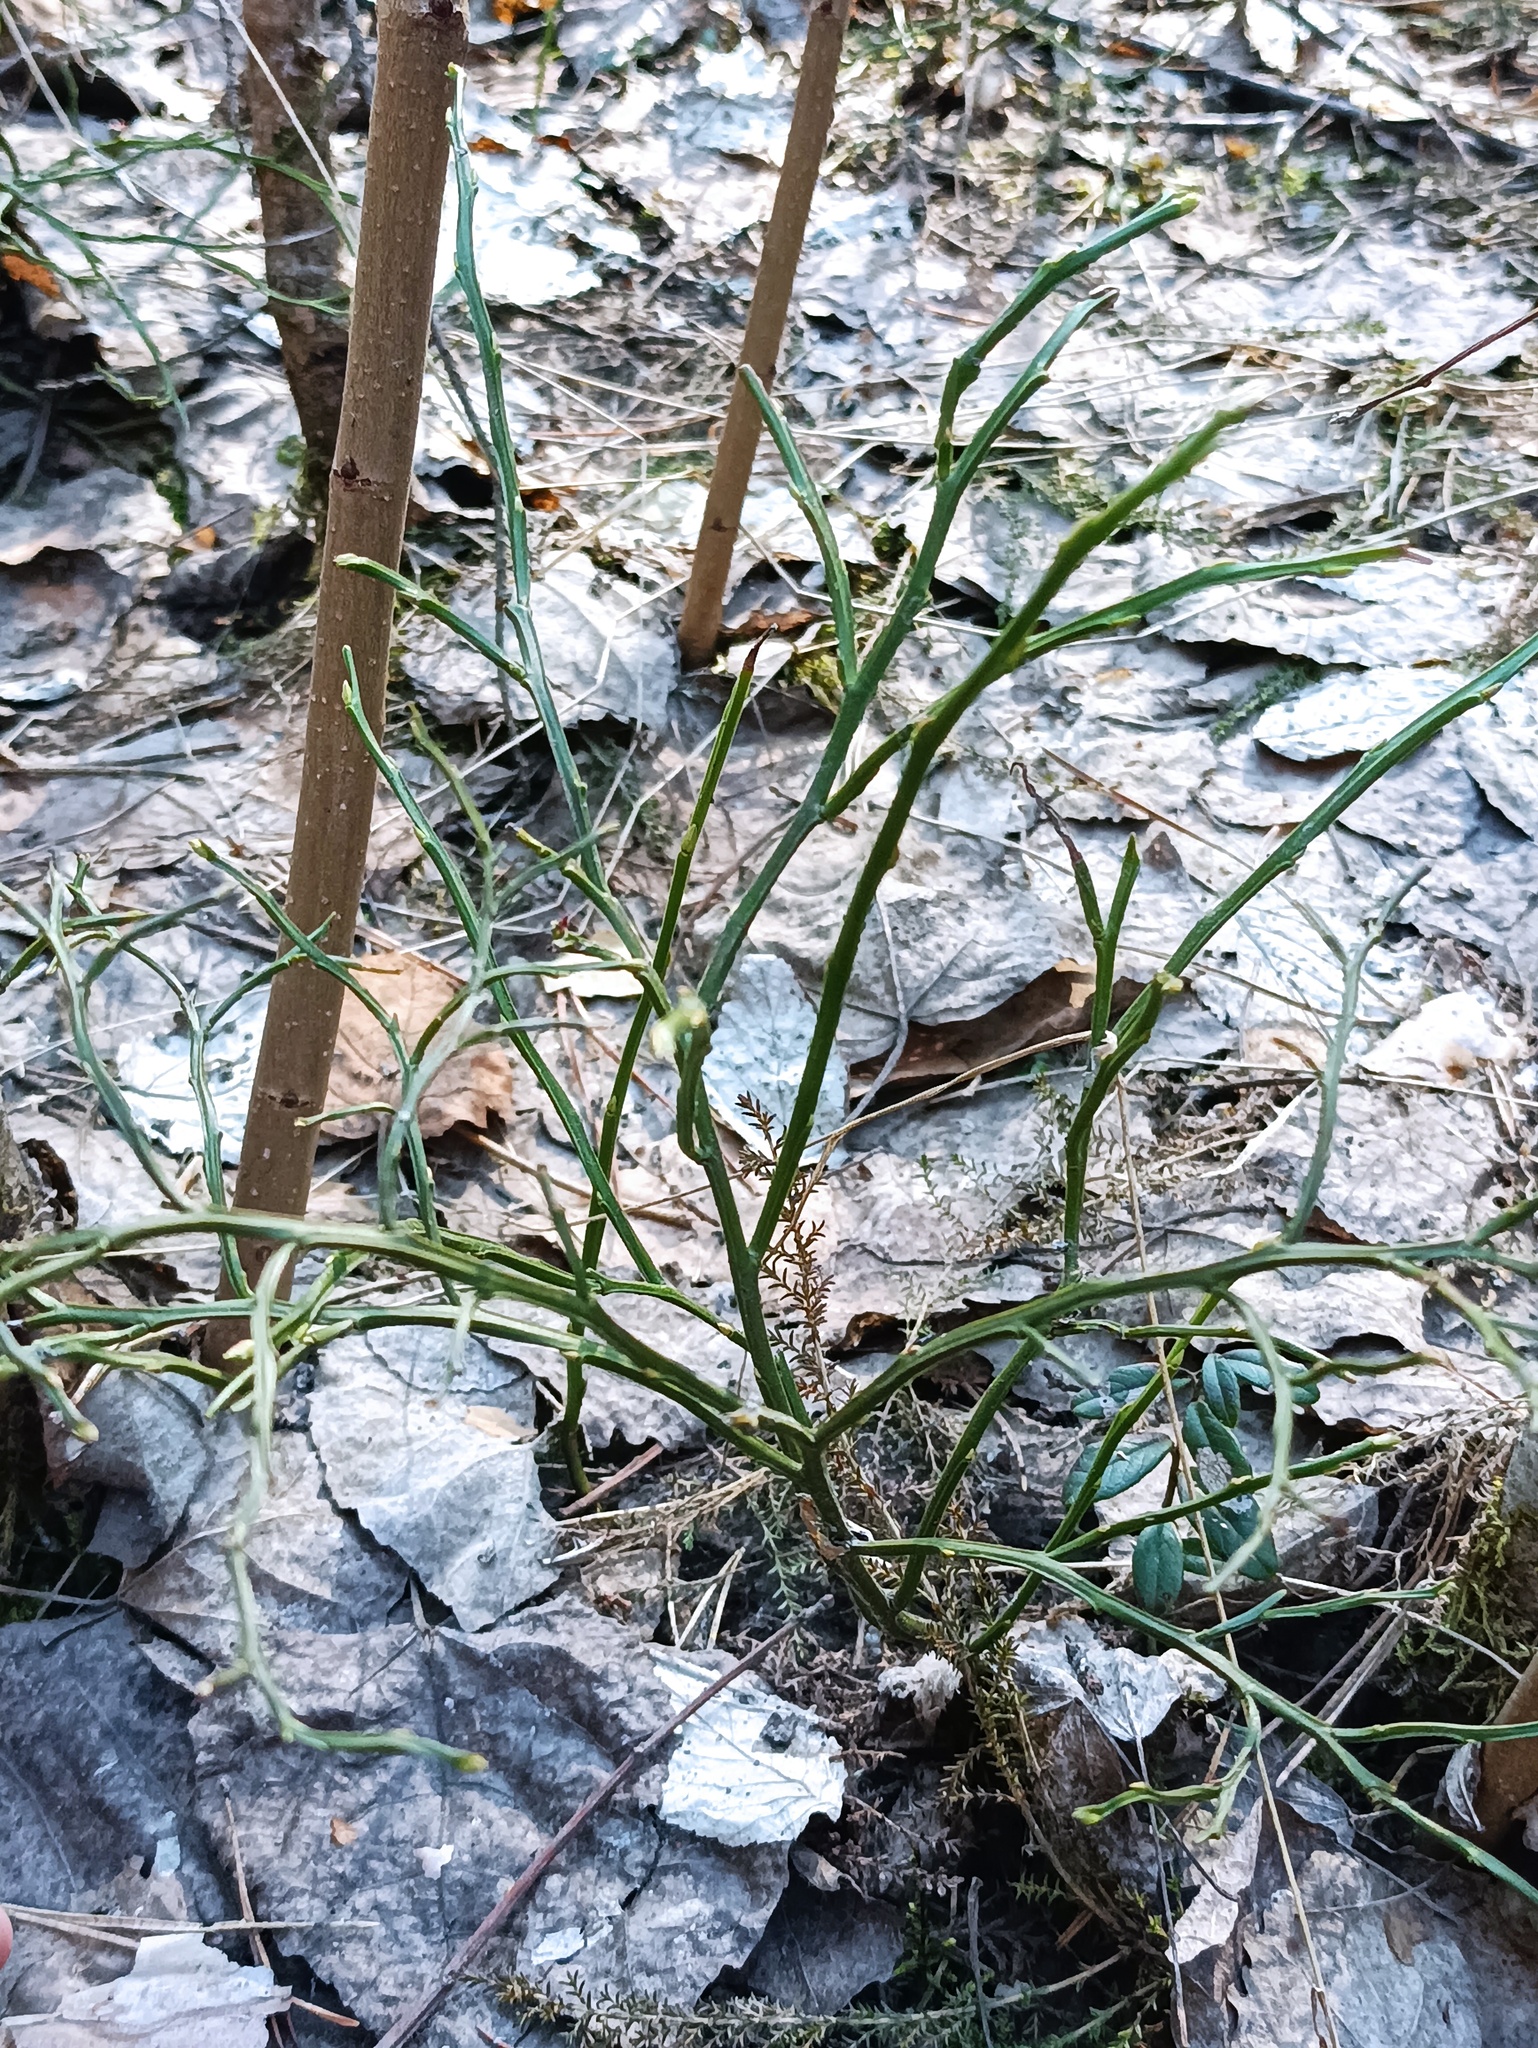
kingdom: Plantae
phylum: Tracheophyta
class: Magnoliopsida
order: Ericales
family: Ericaceae
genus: Vaccinium
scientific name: Vaccinium myrtillus
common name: Bilberry
